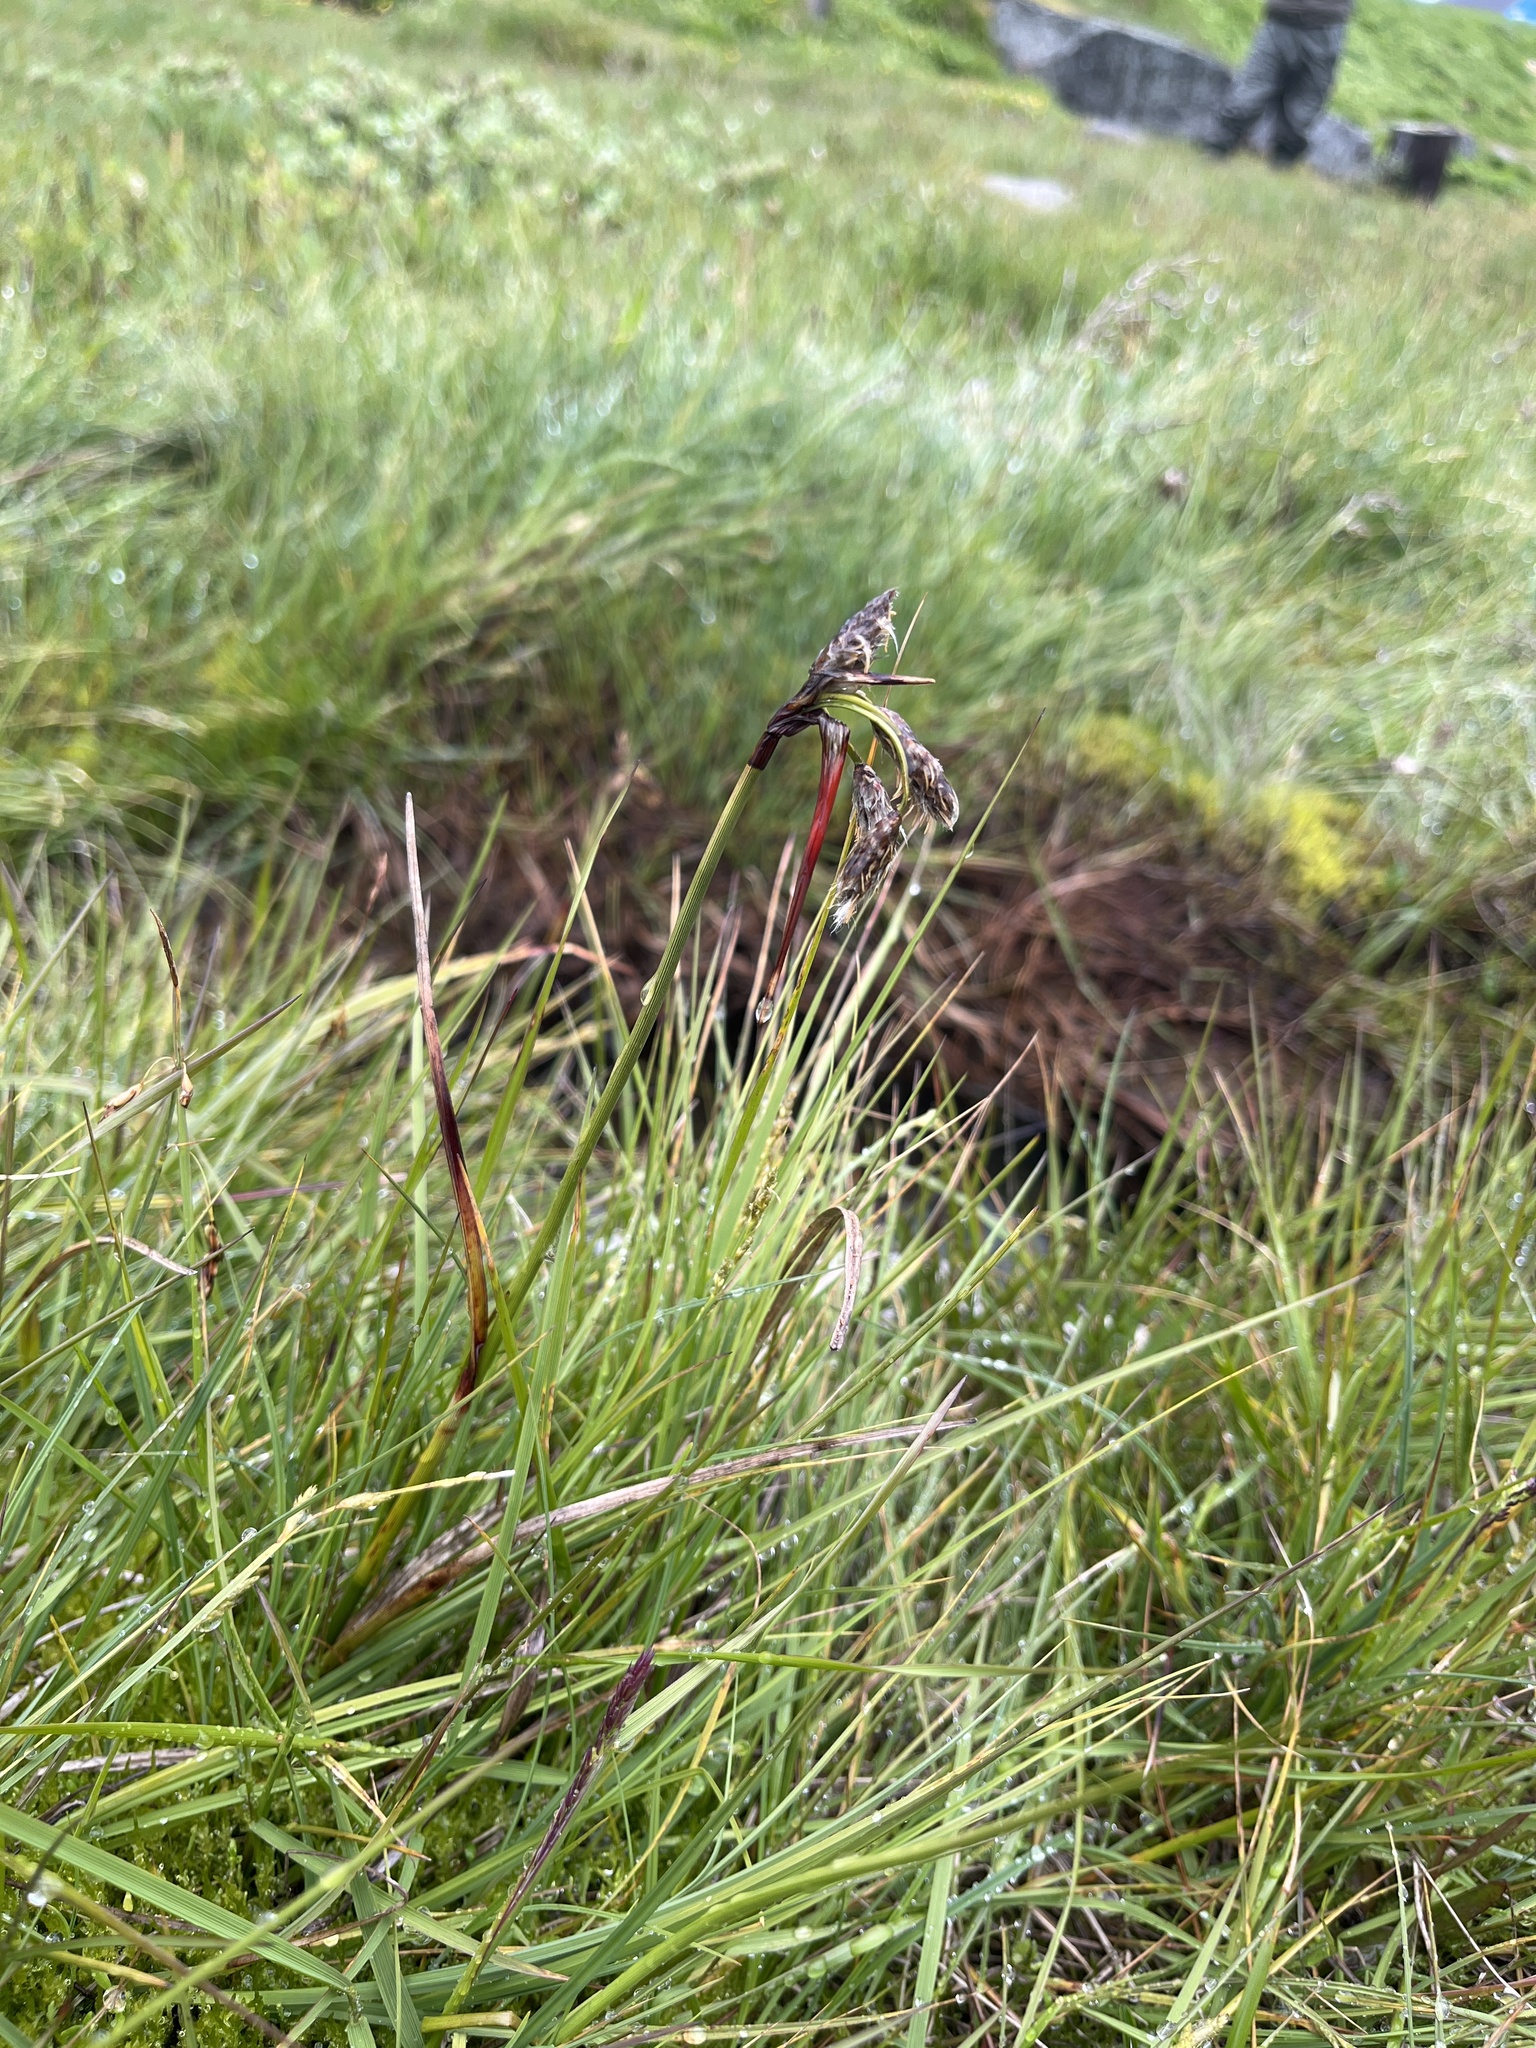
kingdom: Plantae
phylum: Tracheophyta
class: Liliopsida
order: Poales
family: Cyperaceae
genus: Eriophorum
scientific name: Eriophorum angustifolium
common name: Common cottongrass
